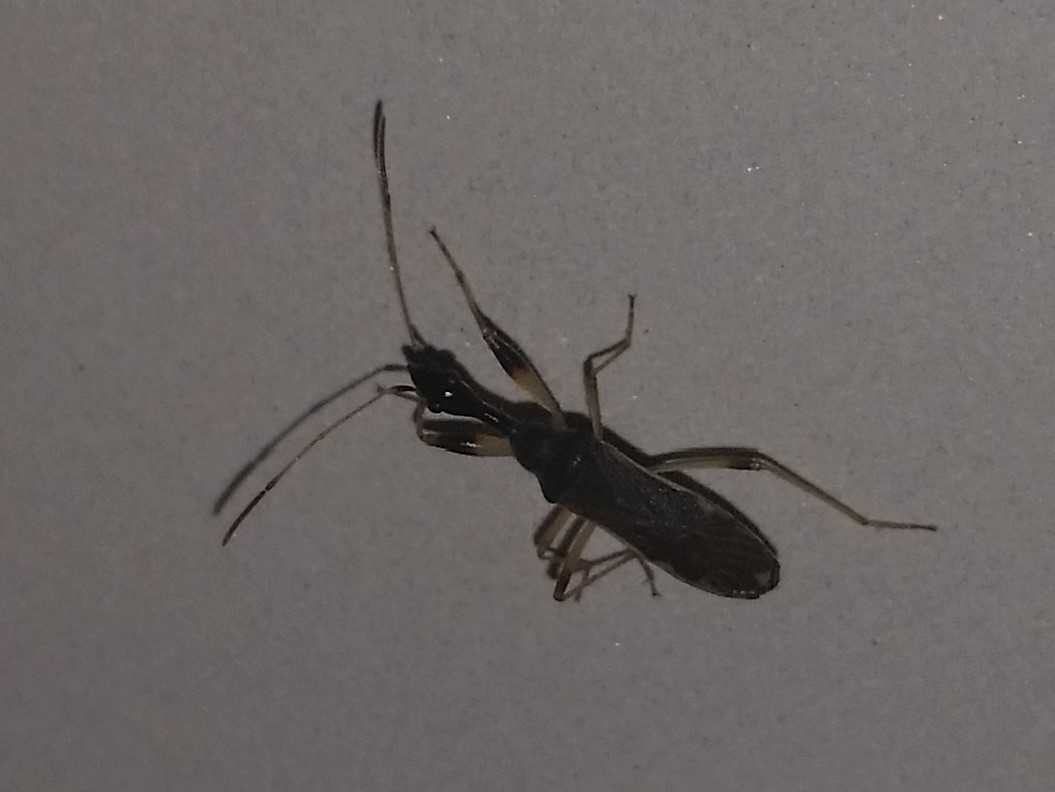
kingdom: Animalia
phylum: Arthropoda
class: Insecta
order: Hemiptera
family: Rhyparochromidae
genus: Myodocha
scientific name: Myodocha serripes
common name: Long-necked seed bug
